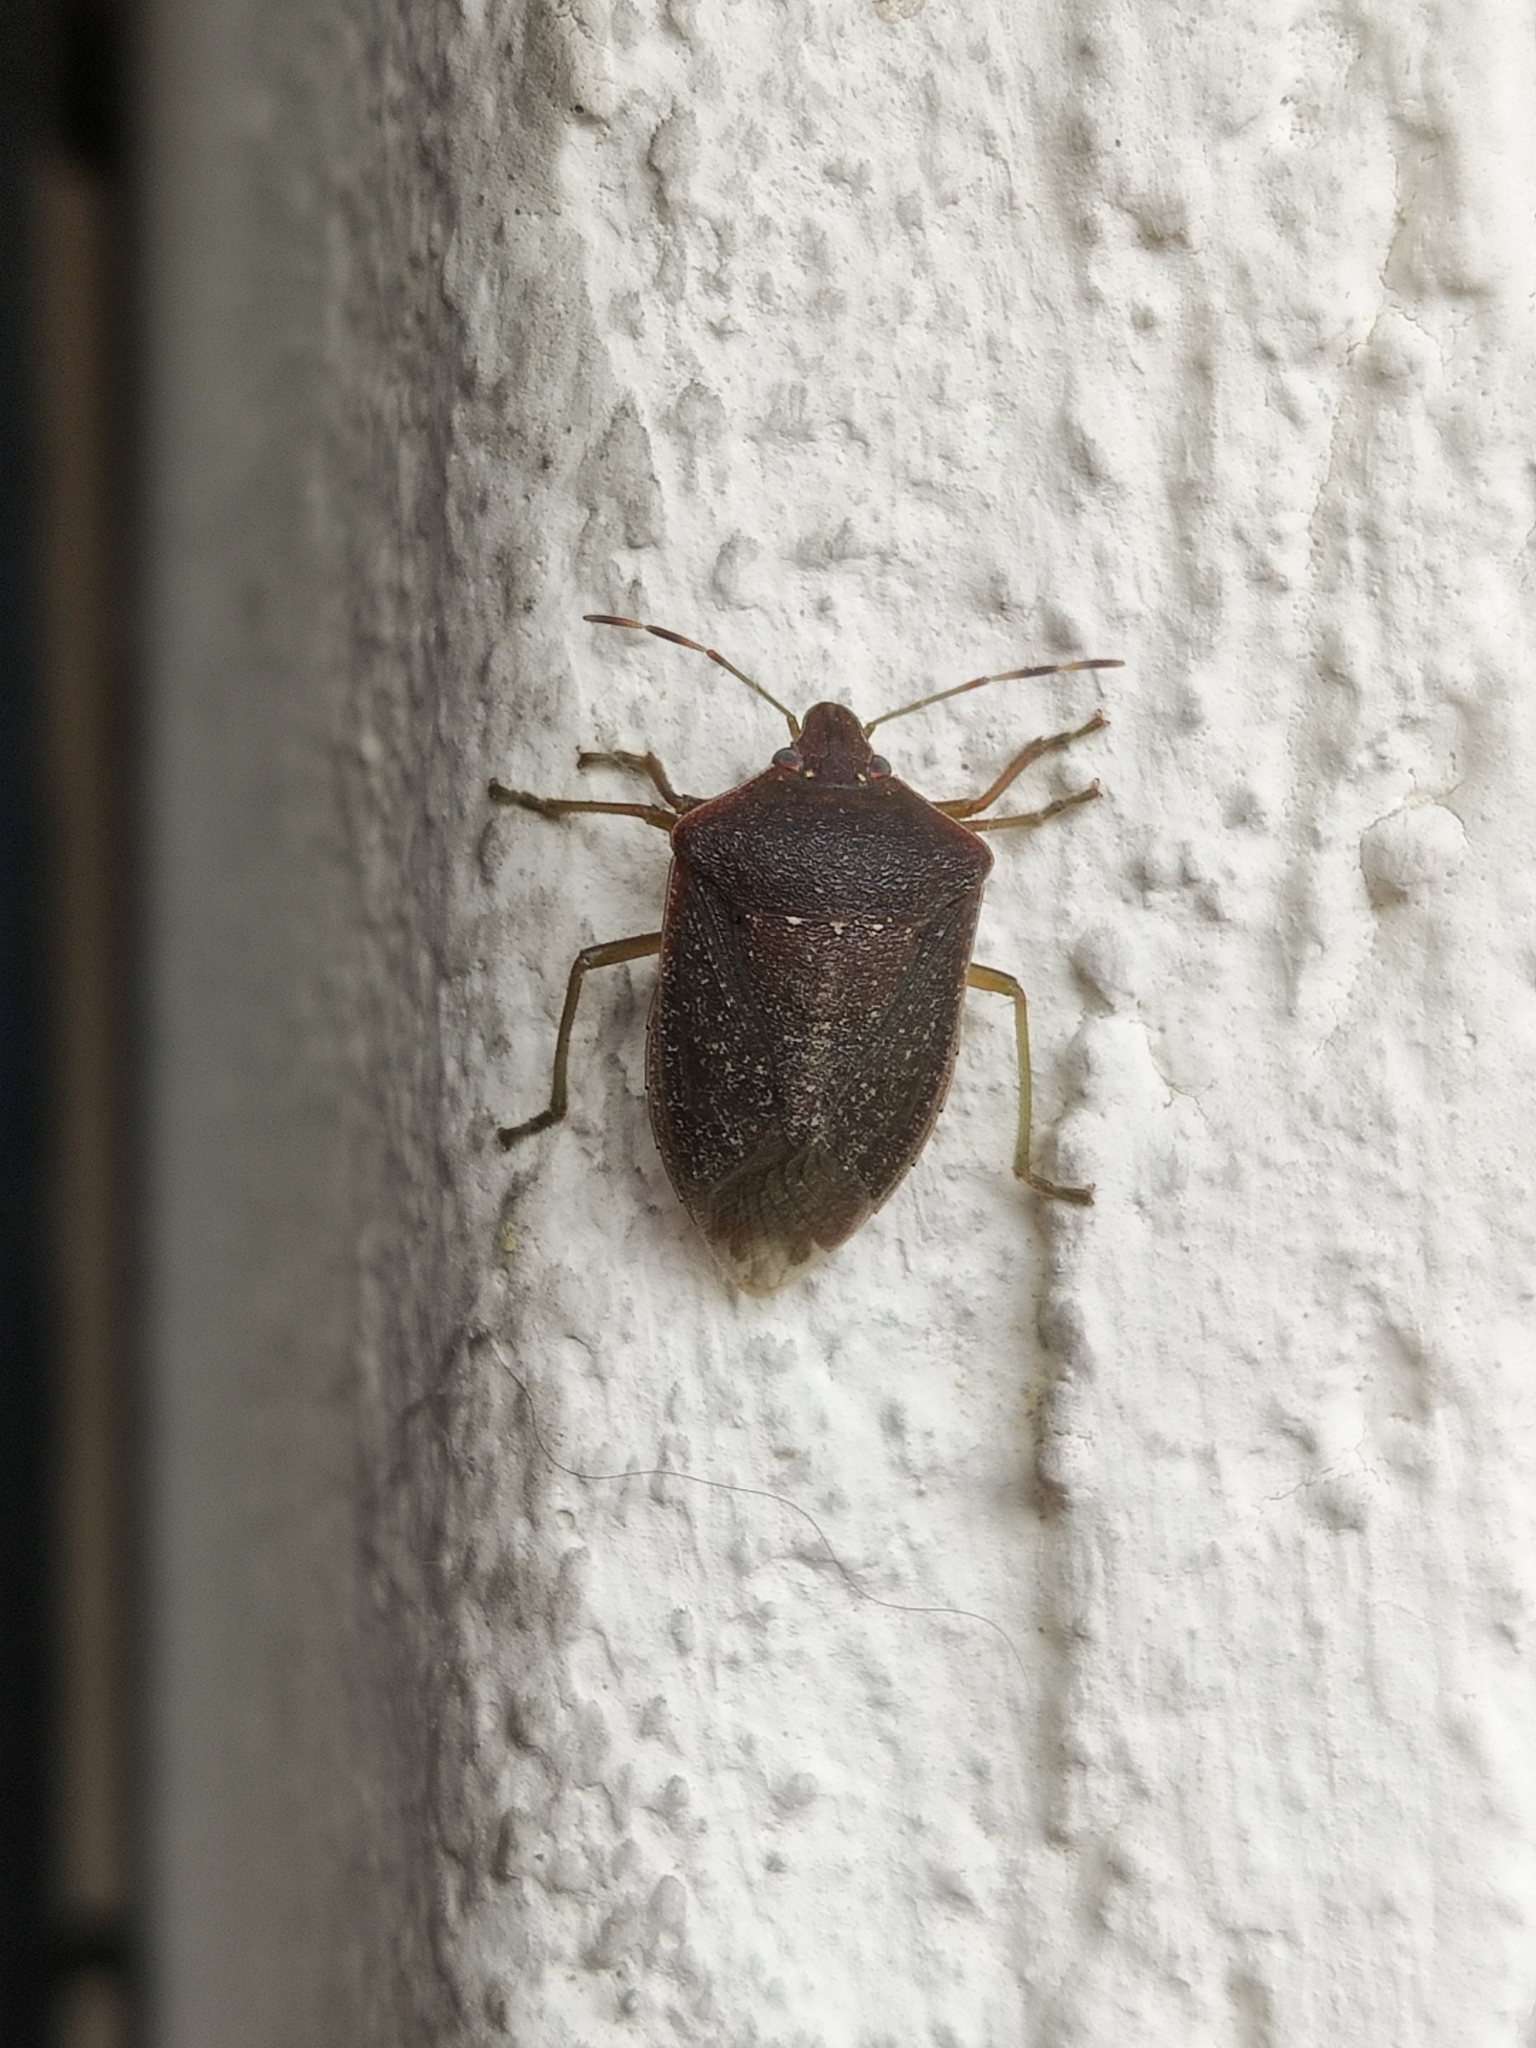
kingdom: Animalia
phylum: Arthropoda
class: Insecta
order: Hemiptera
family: Pentatomidae
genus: Nezara
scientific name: Nezara viridula
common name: Southern green stink bug
